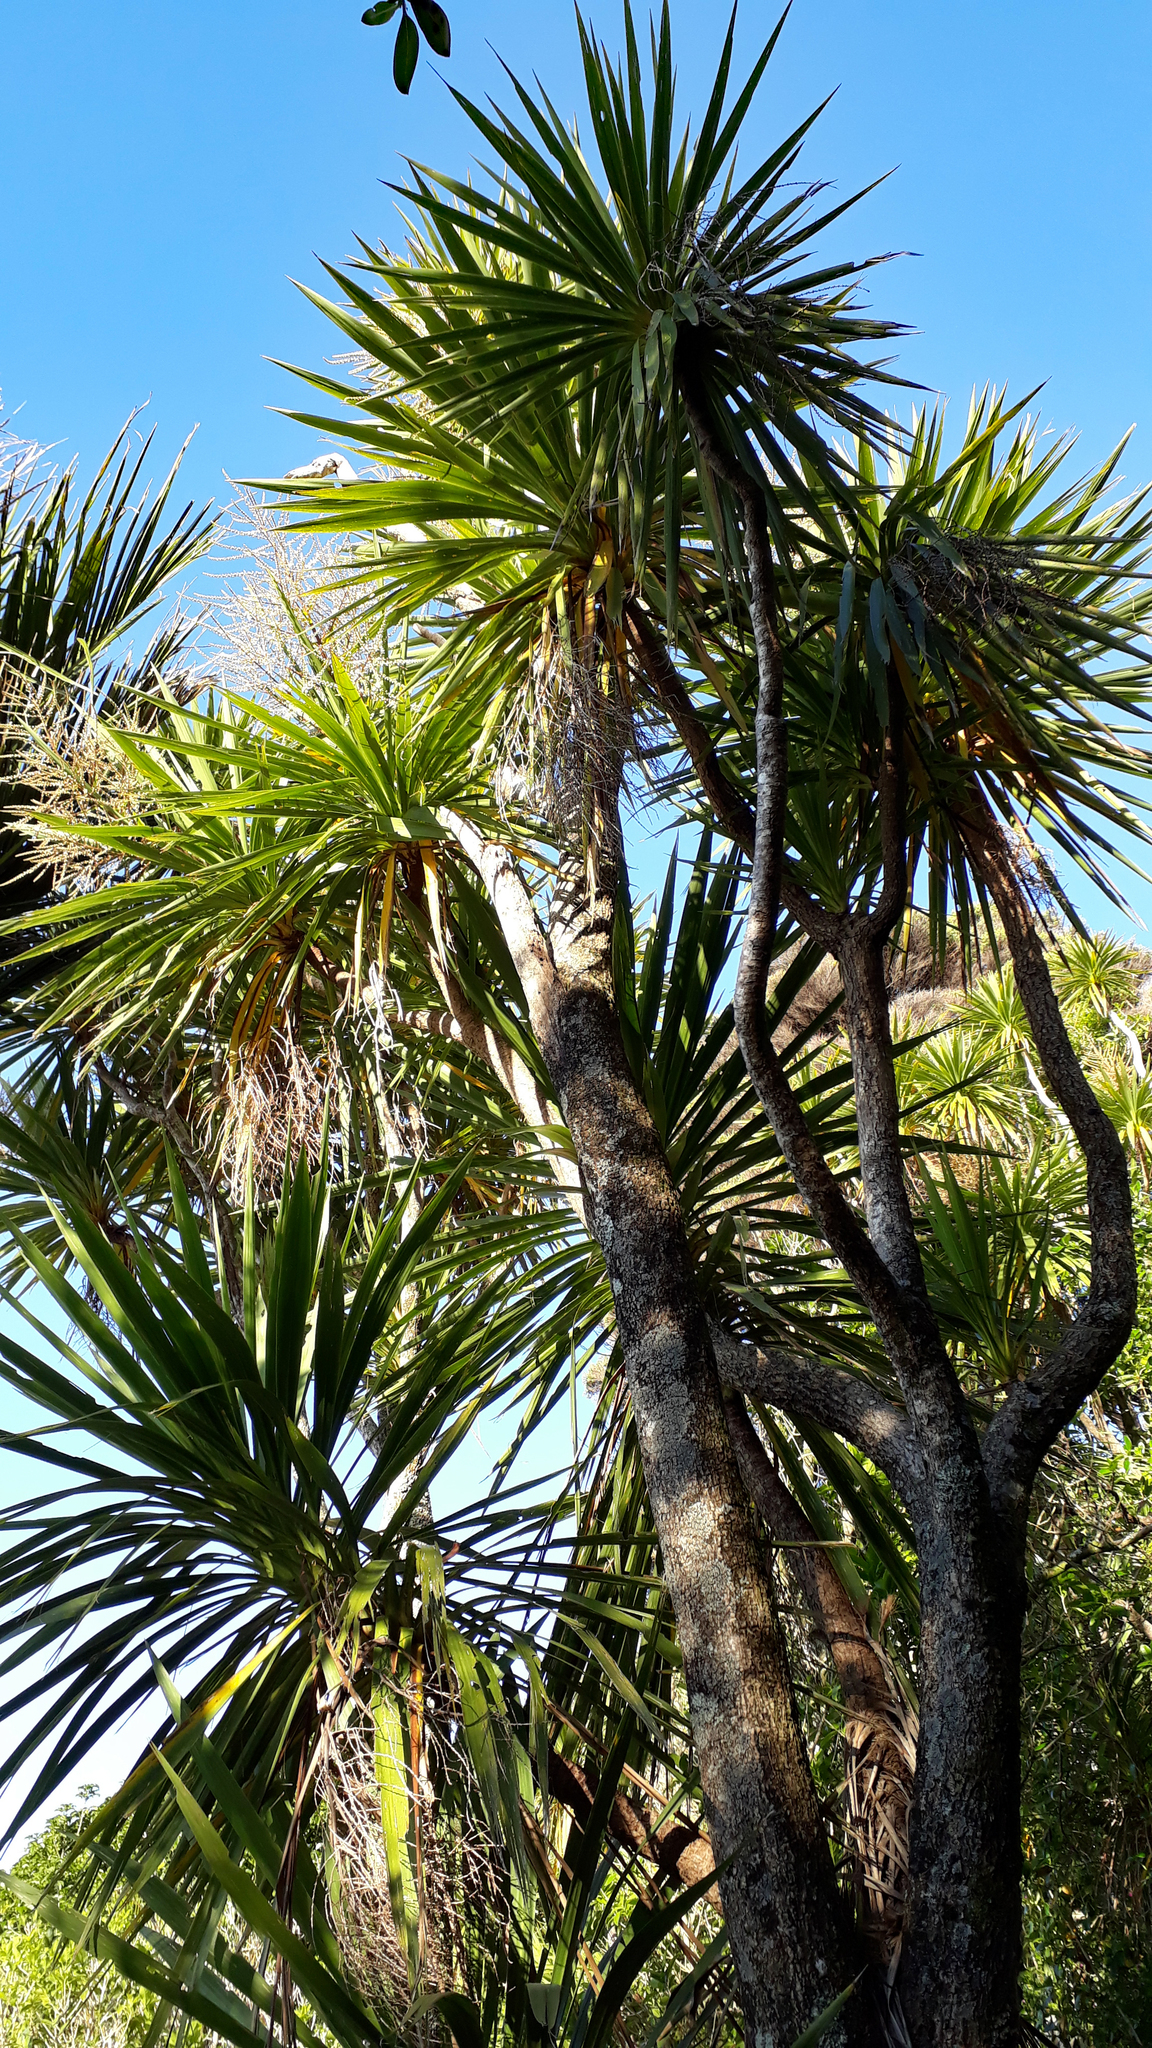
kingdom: Plantae
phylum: Tracheophyta
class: Liliopsida
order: Asparagales
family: Asparagaceae
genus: Cordyline
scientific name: Cordyline australis
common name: Cabbage-palm
